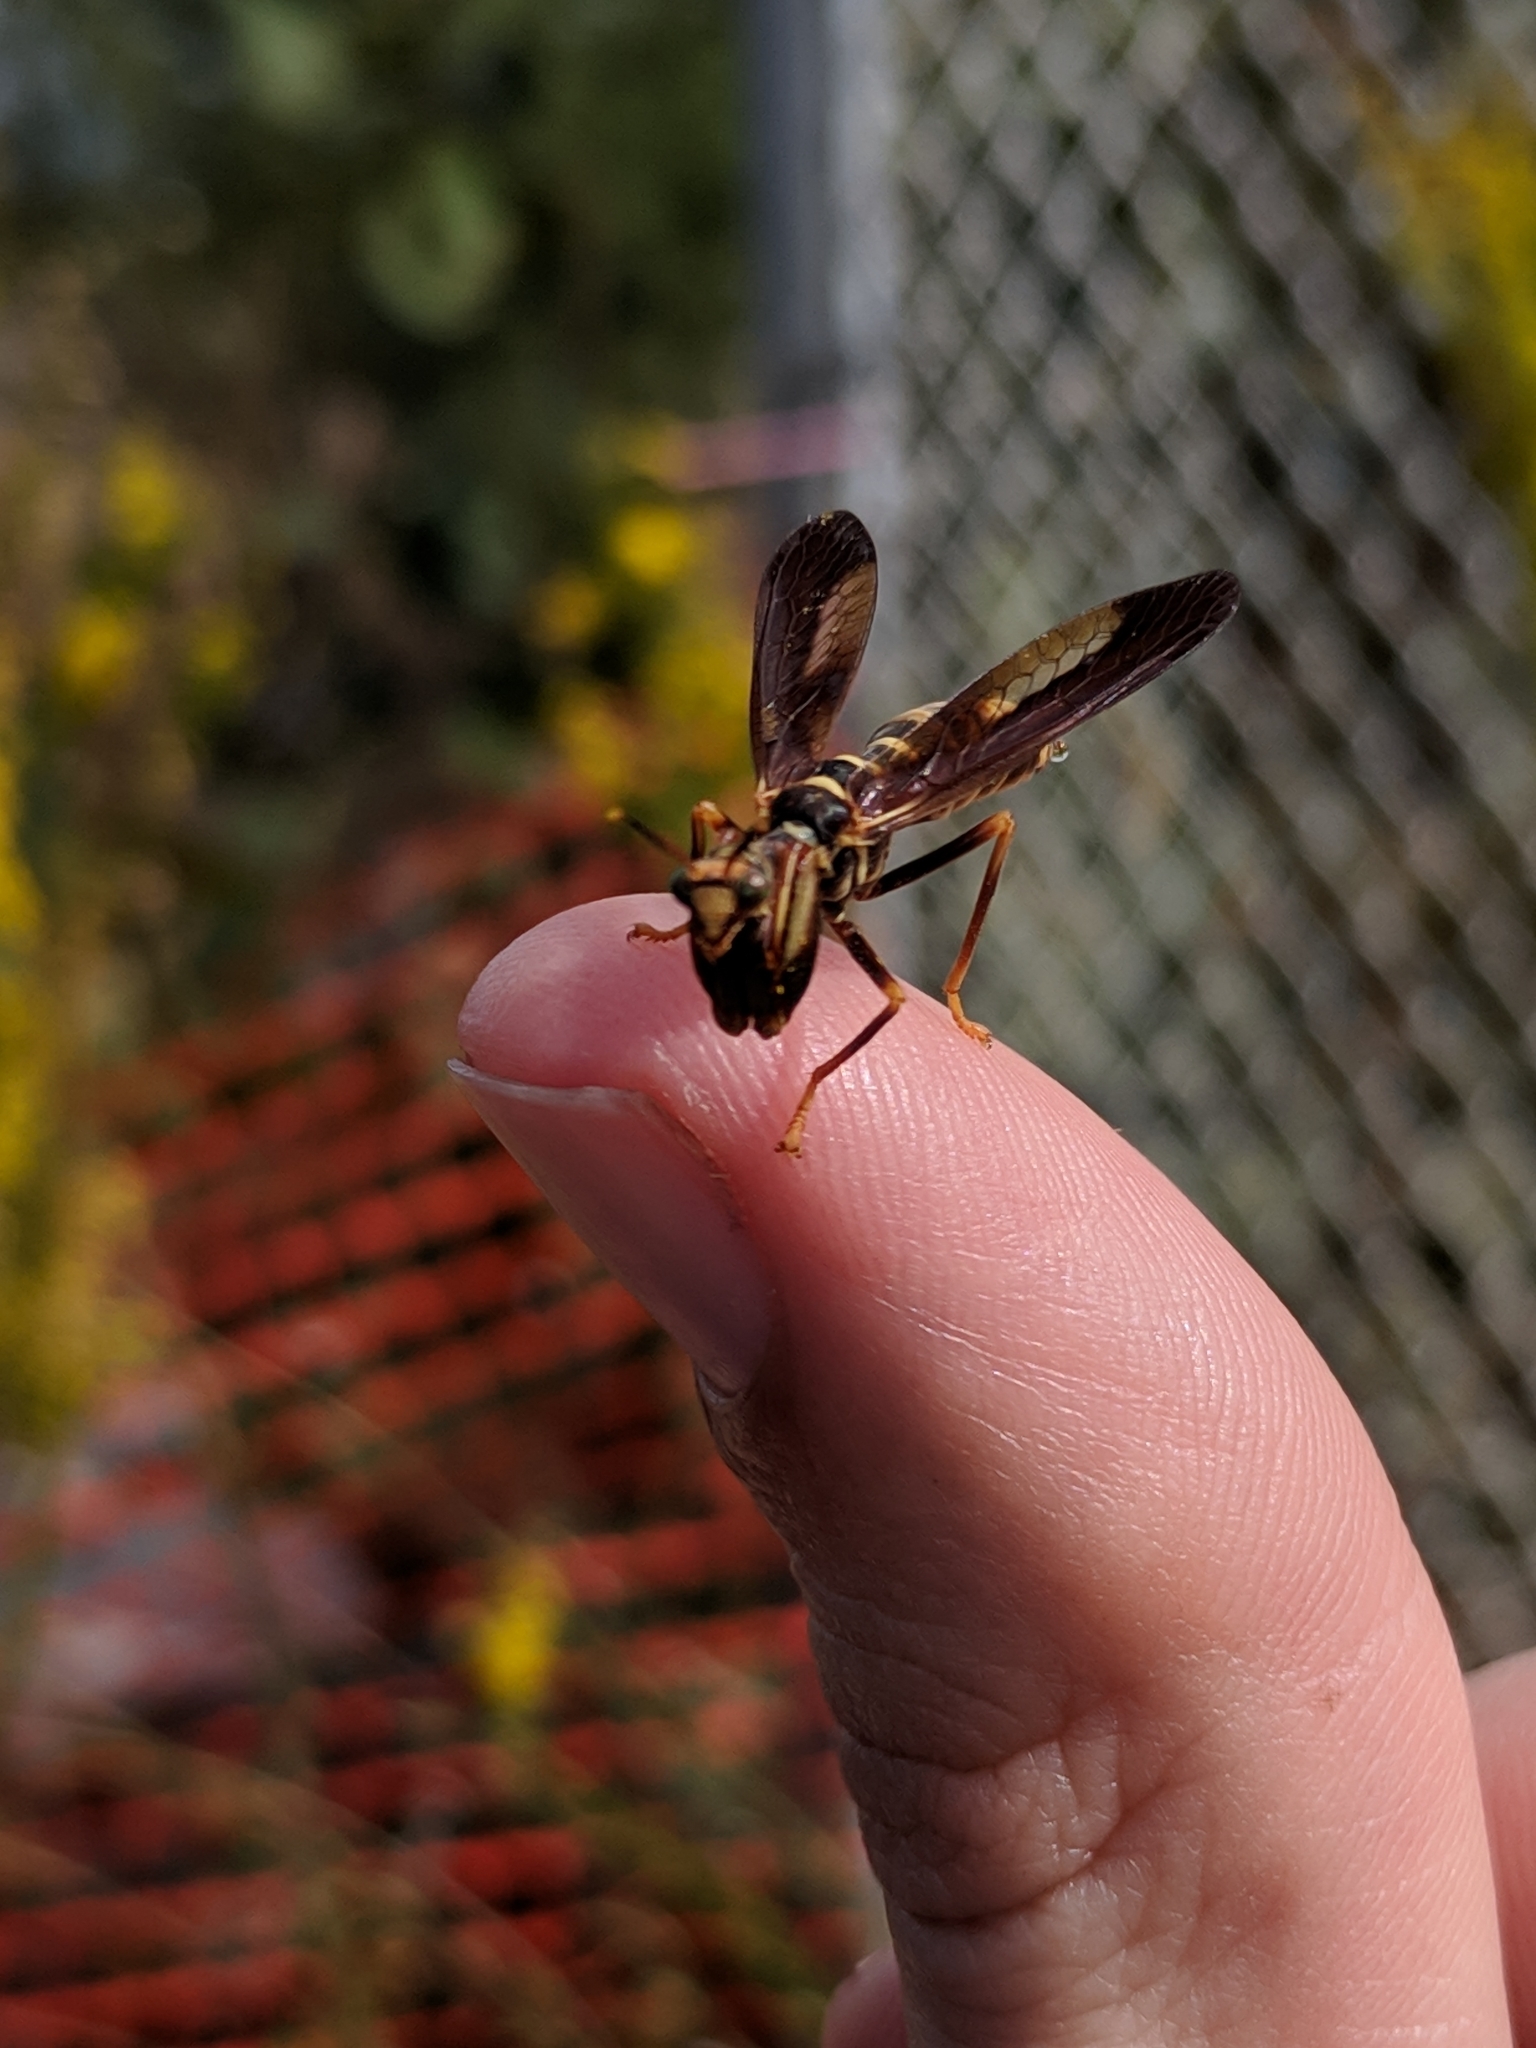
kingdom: Animalia
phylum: Arthropoda
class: Insecta
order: Neuroptera
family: Mantispidae
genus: Climaciella
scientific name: Climaciella brunnea
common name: Brown wasp mantidfly
